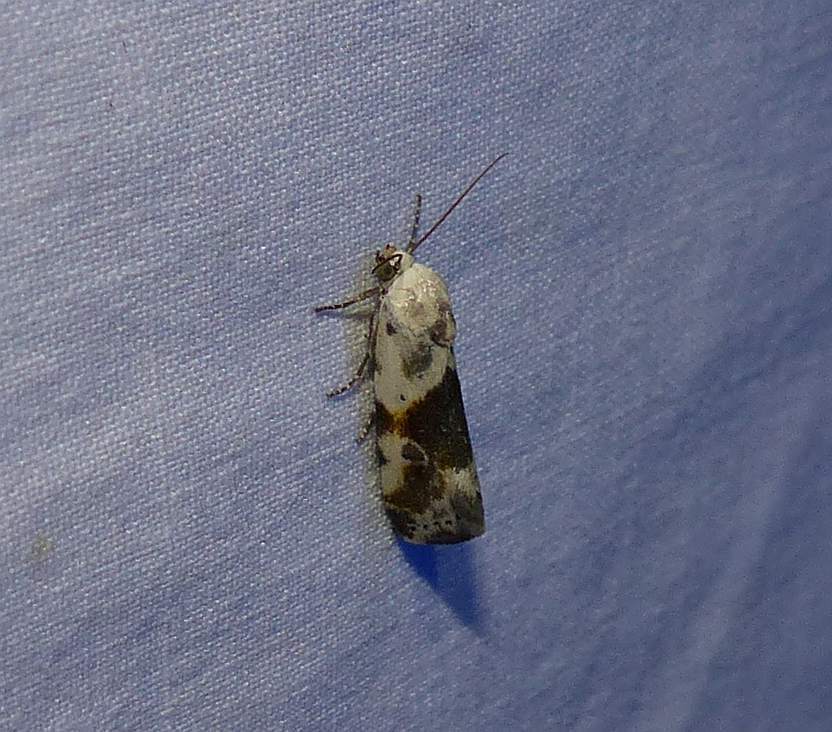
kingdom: Animalia
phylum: Arthropoda
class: Insecta
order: Lepidoptera
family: Noctuidae
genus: Acontia
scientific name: Acontia candefacta
